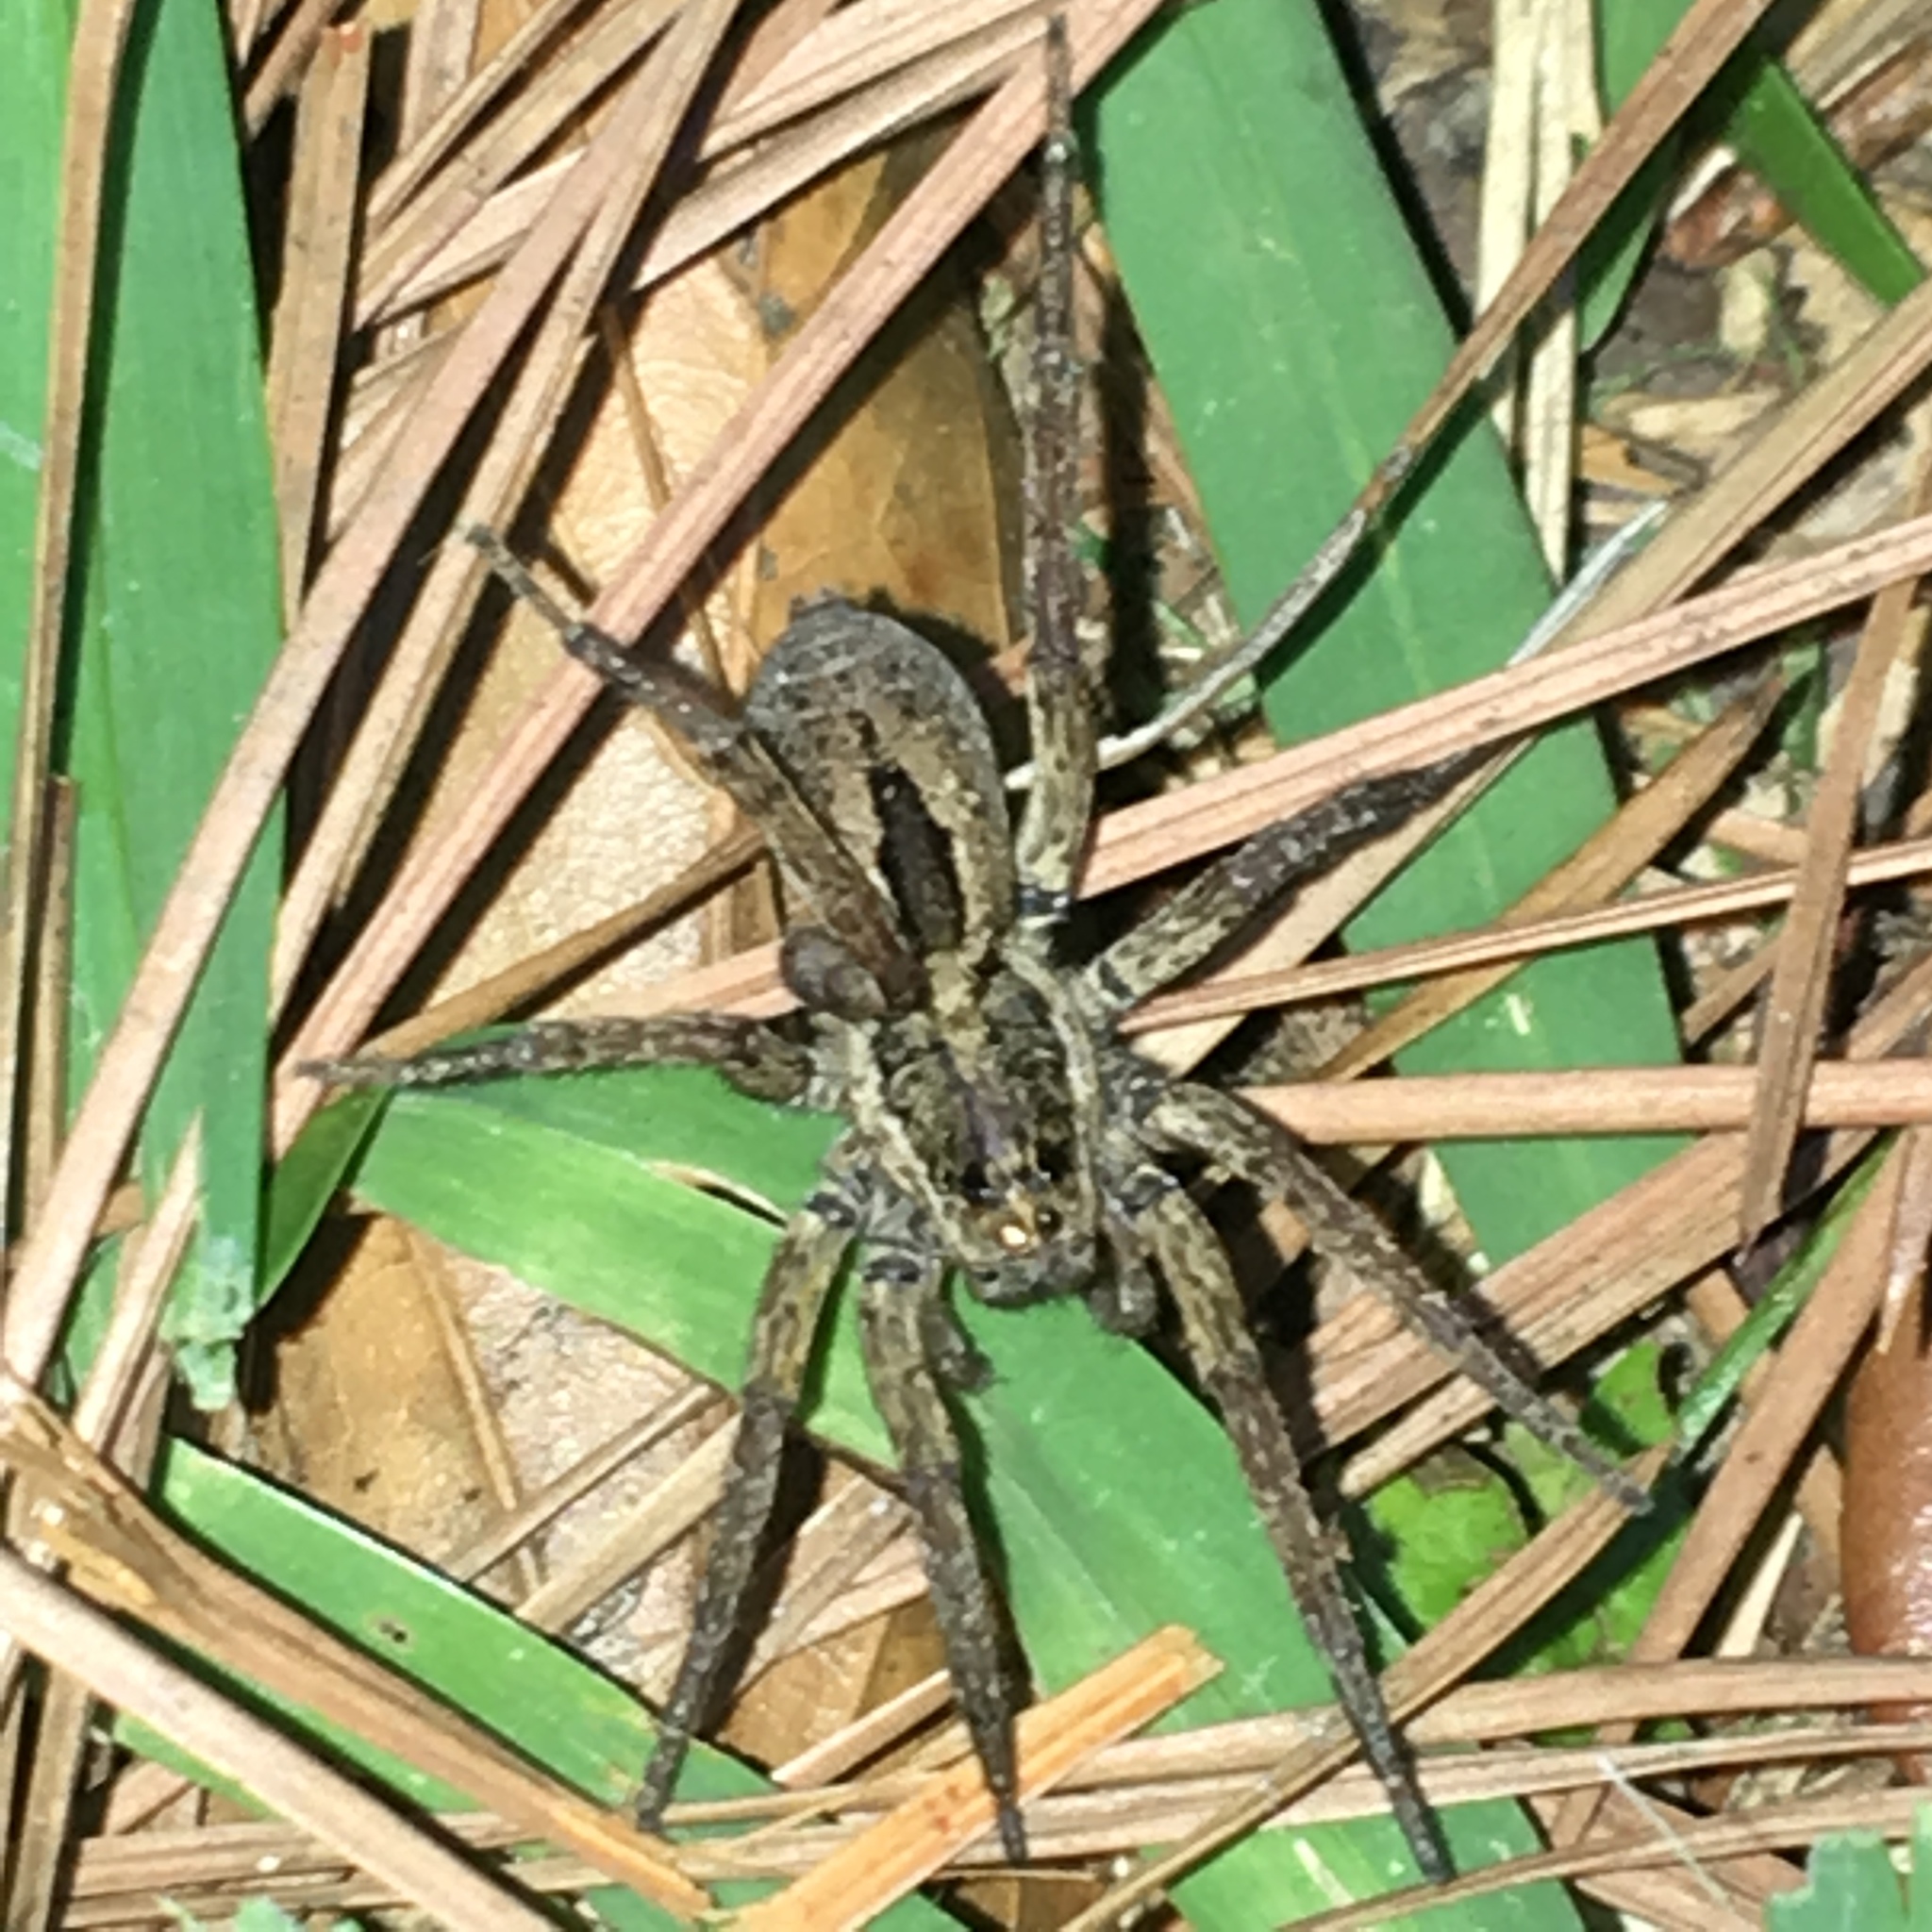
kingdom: Animalia
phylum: Arthropoda
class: Arachnida
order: Araneae
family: Lycosidae
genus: Tigrosa
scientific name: Tigrosa annexa
